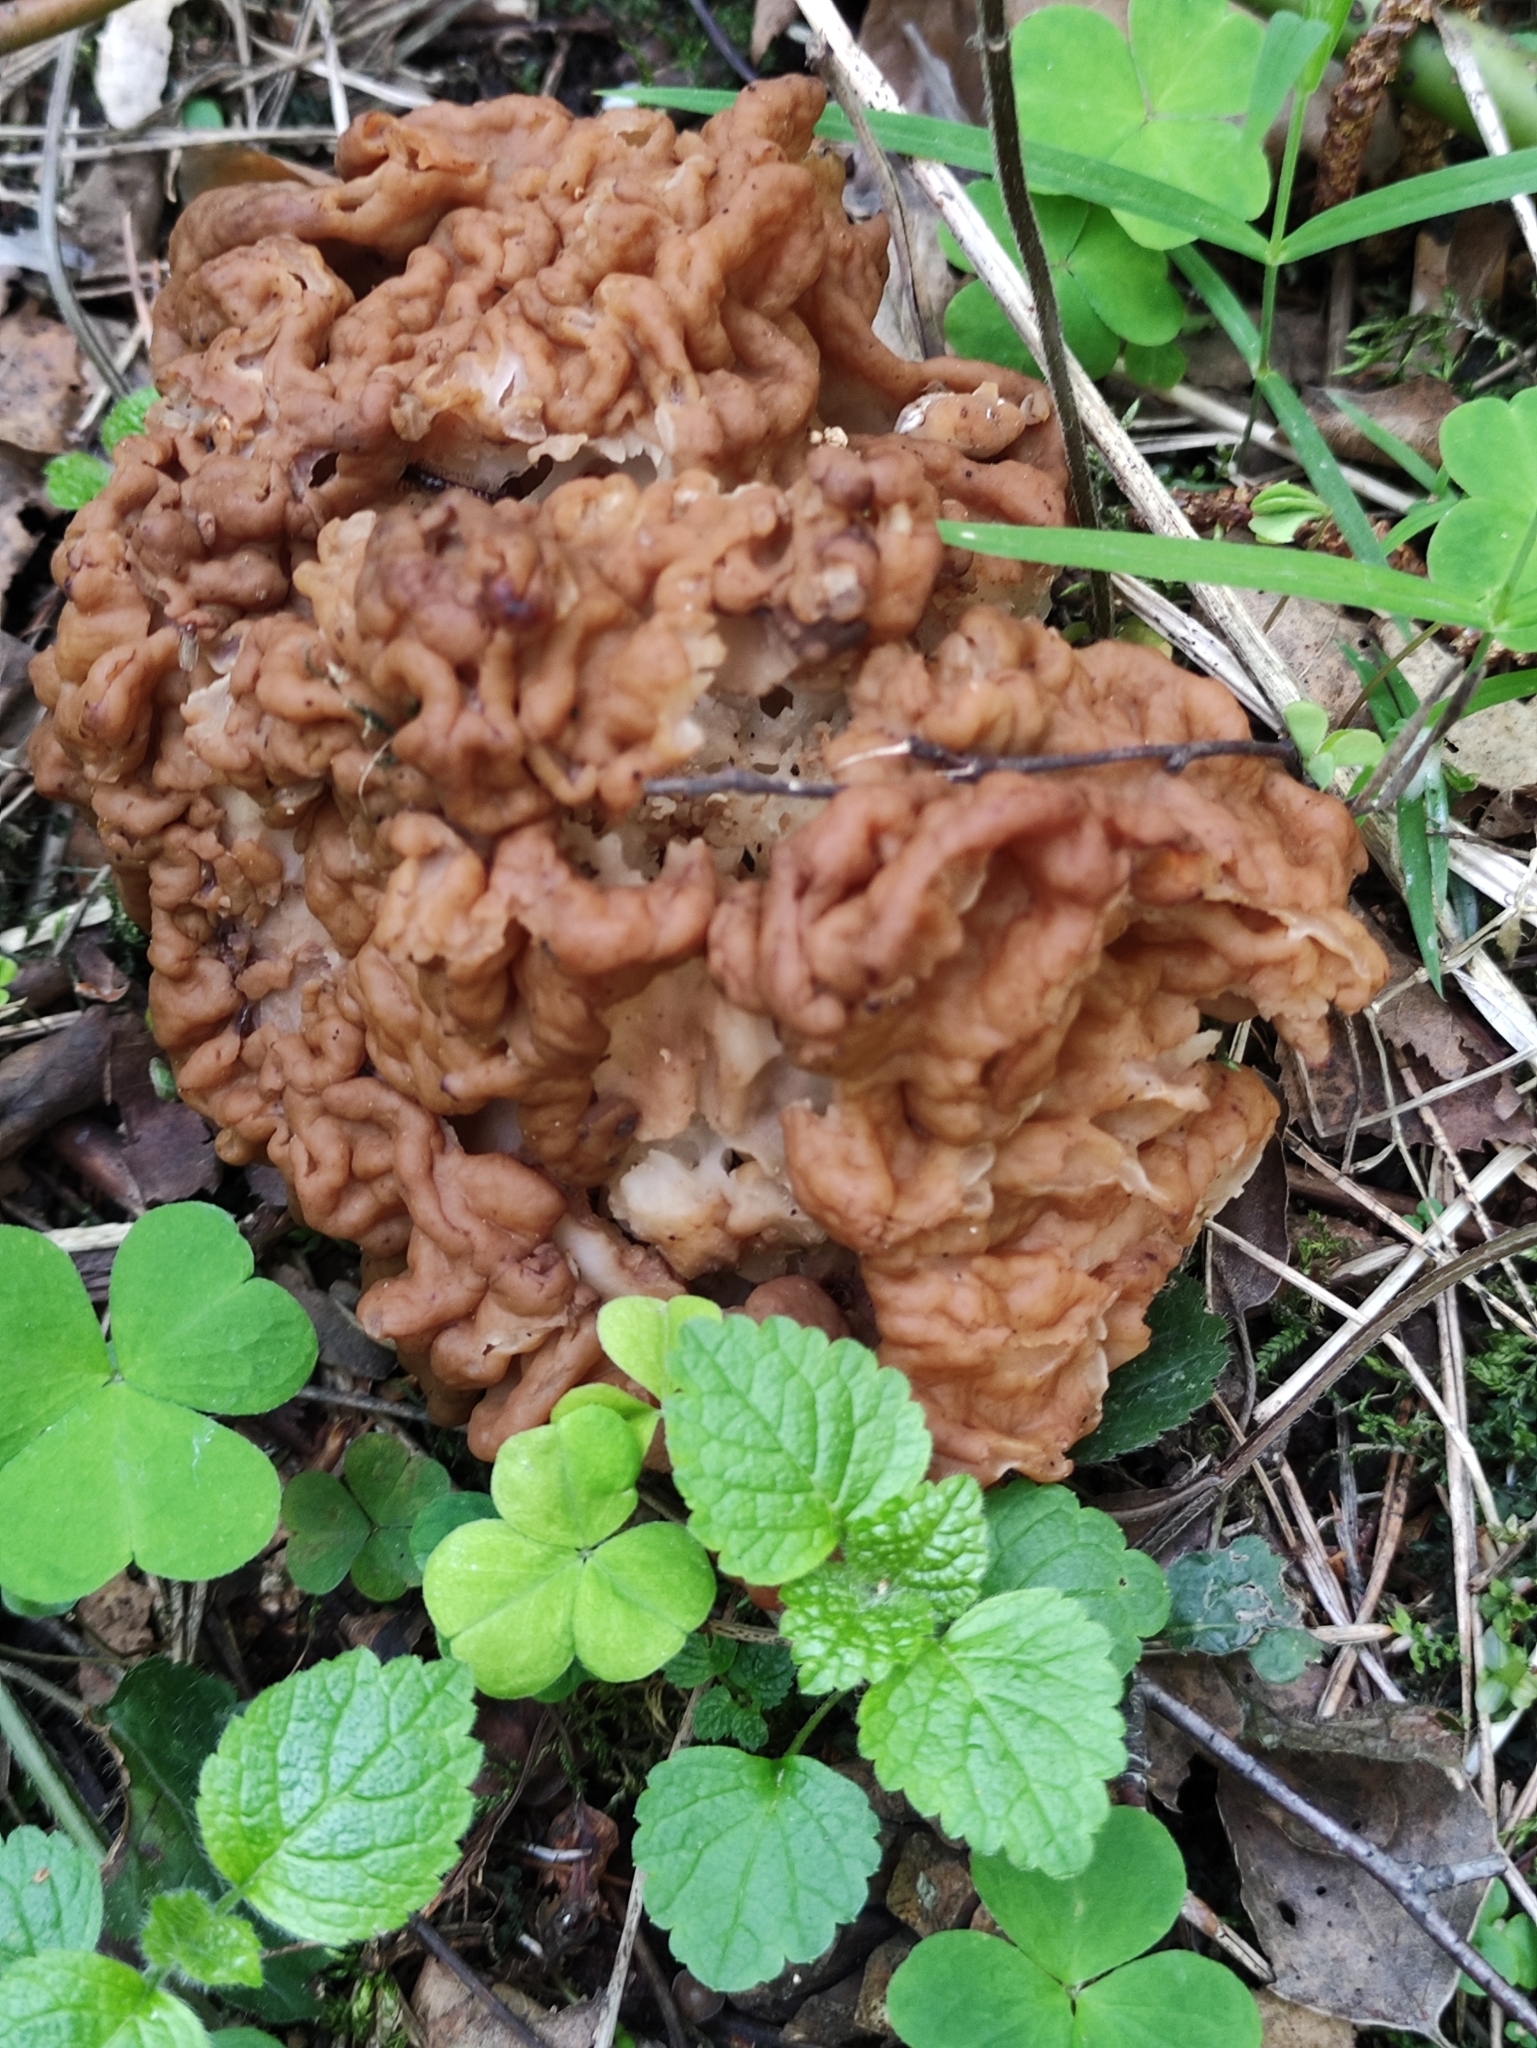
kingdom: Fungi
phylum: Ascomycota
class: Pezizomycetes
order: Pezizales
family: Discinaceae
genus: Gyromitra
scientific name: Gyromitra gigas
